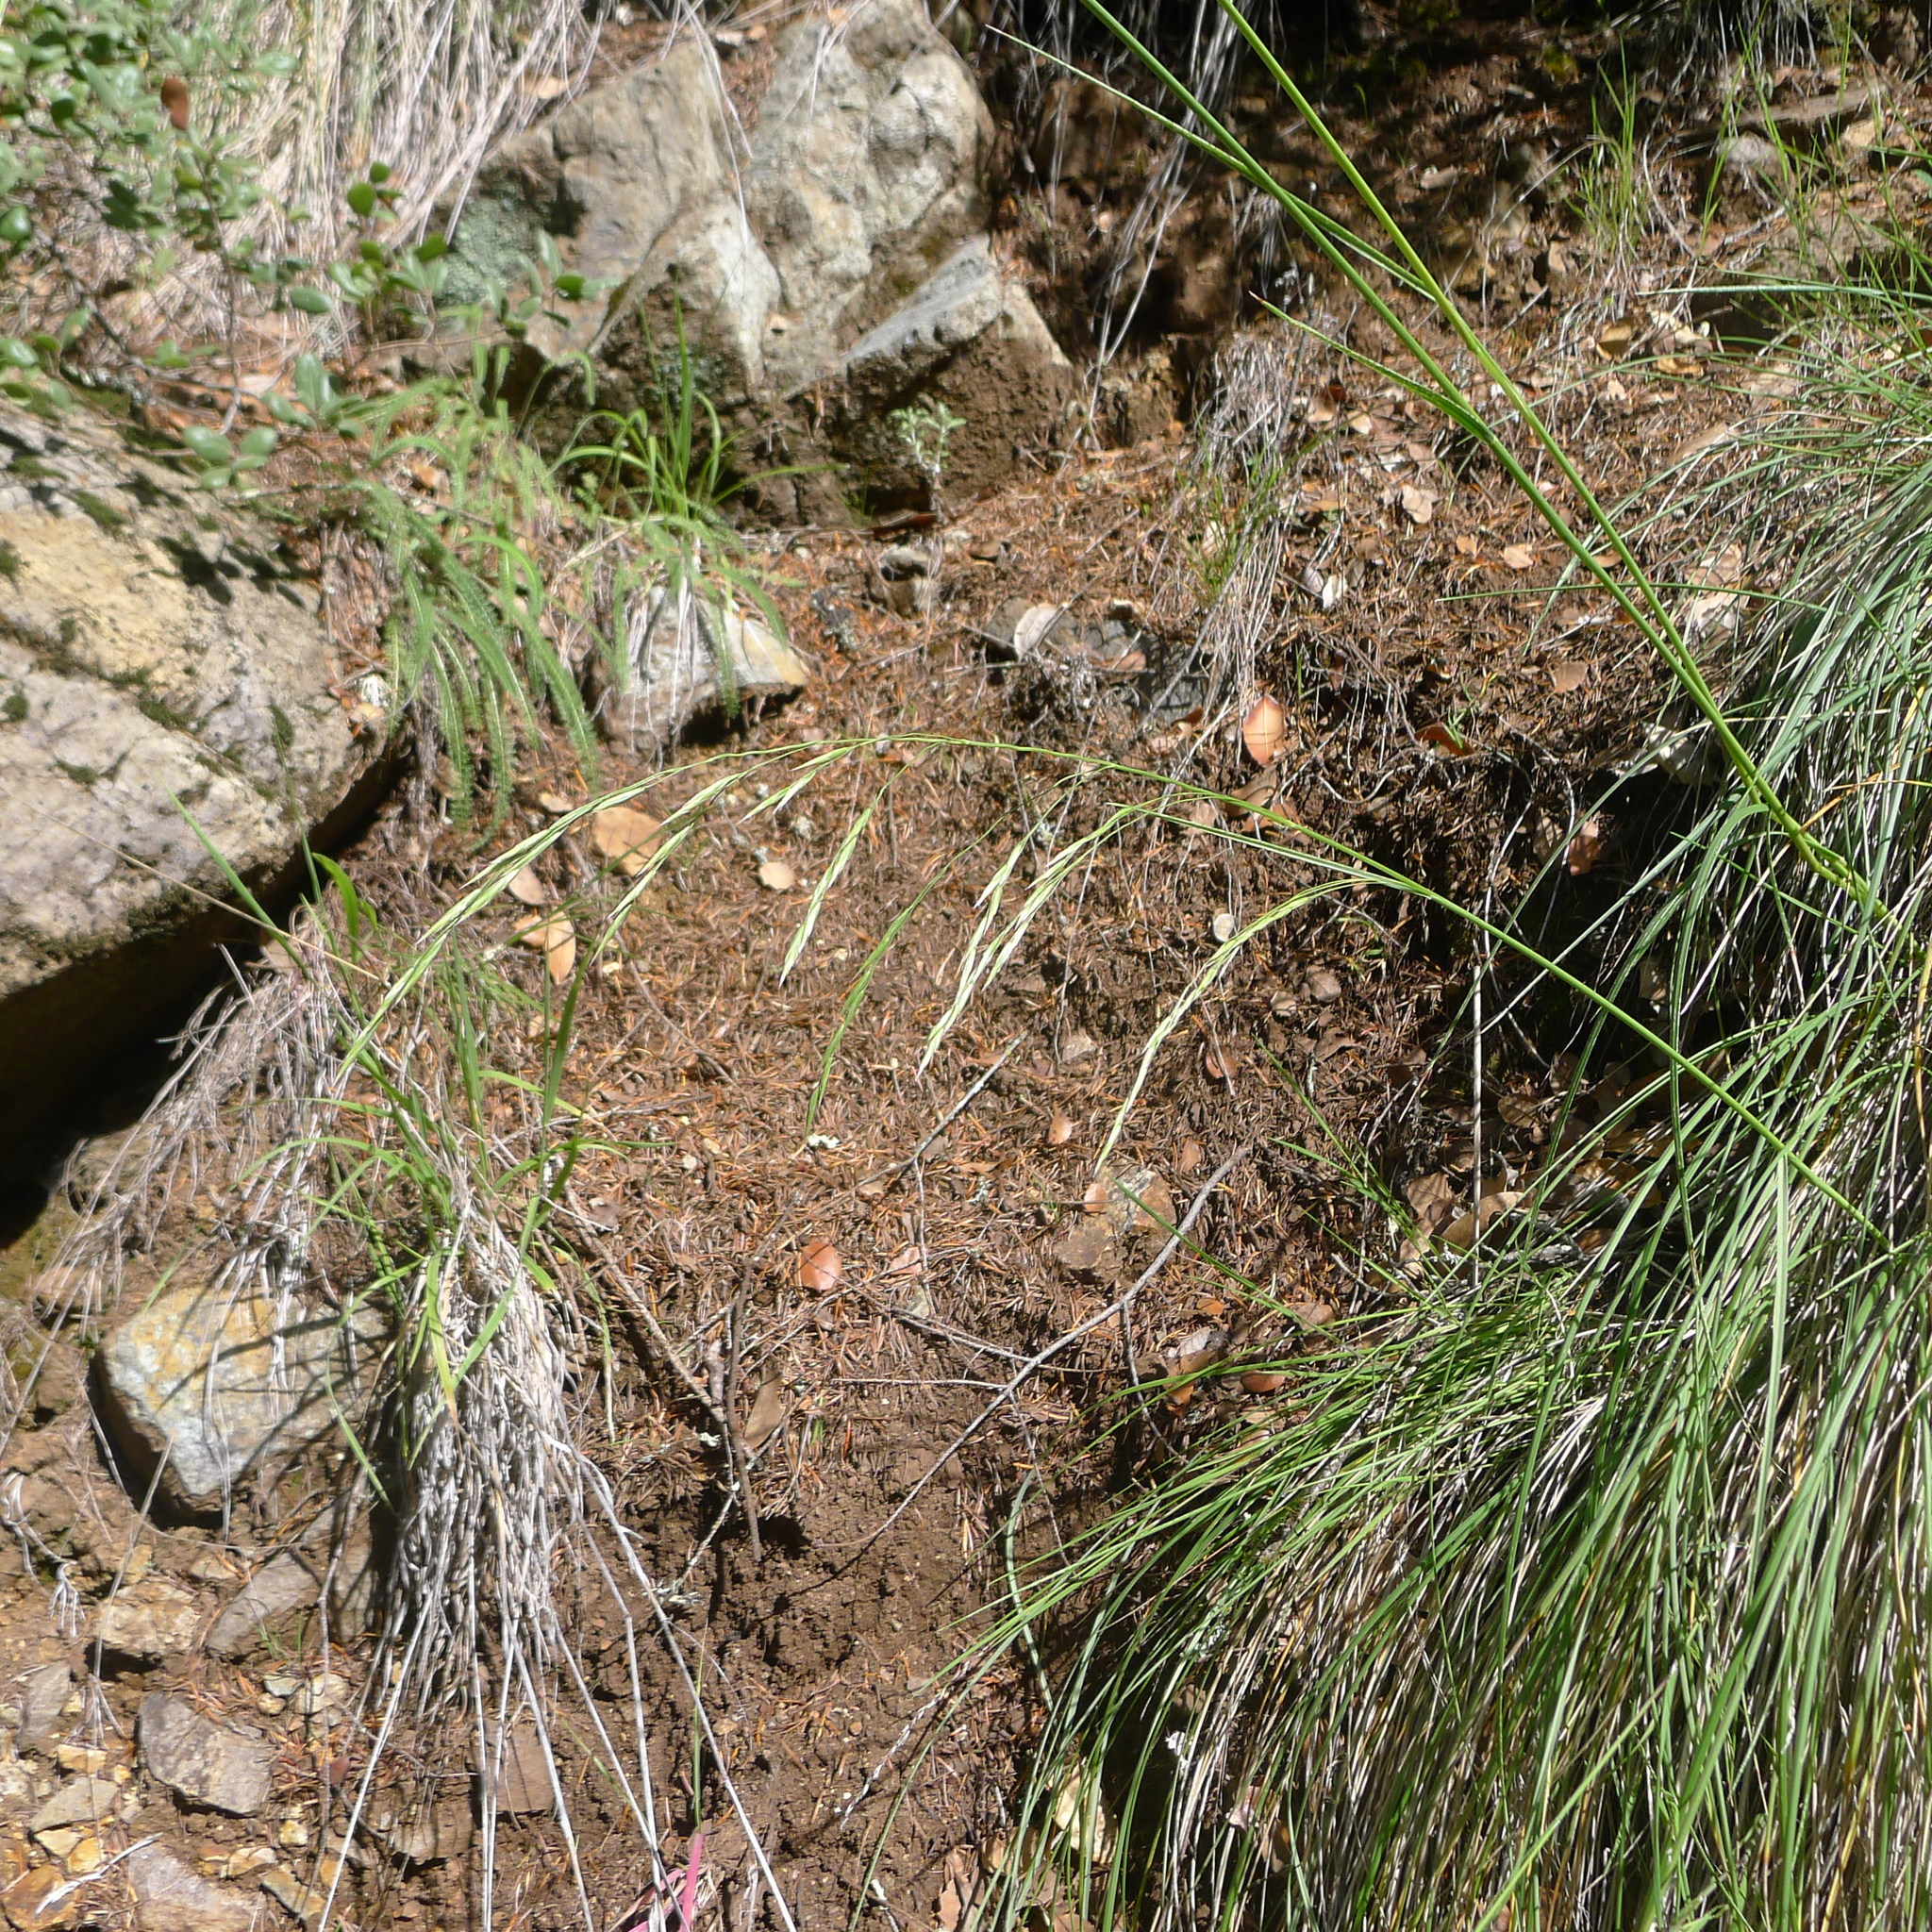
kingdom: Plantae
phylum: Tracheophyta
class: Liliopsida
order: Poales
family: Poaceae
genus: Festuca
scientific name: Festuca californica
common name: California fescue
